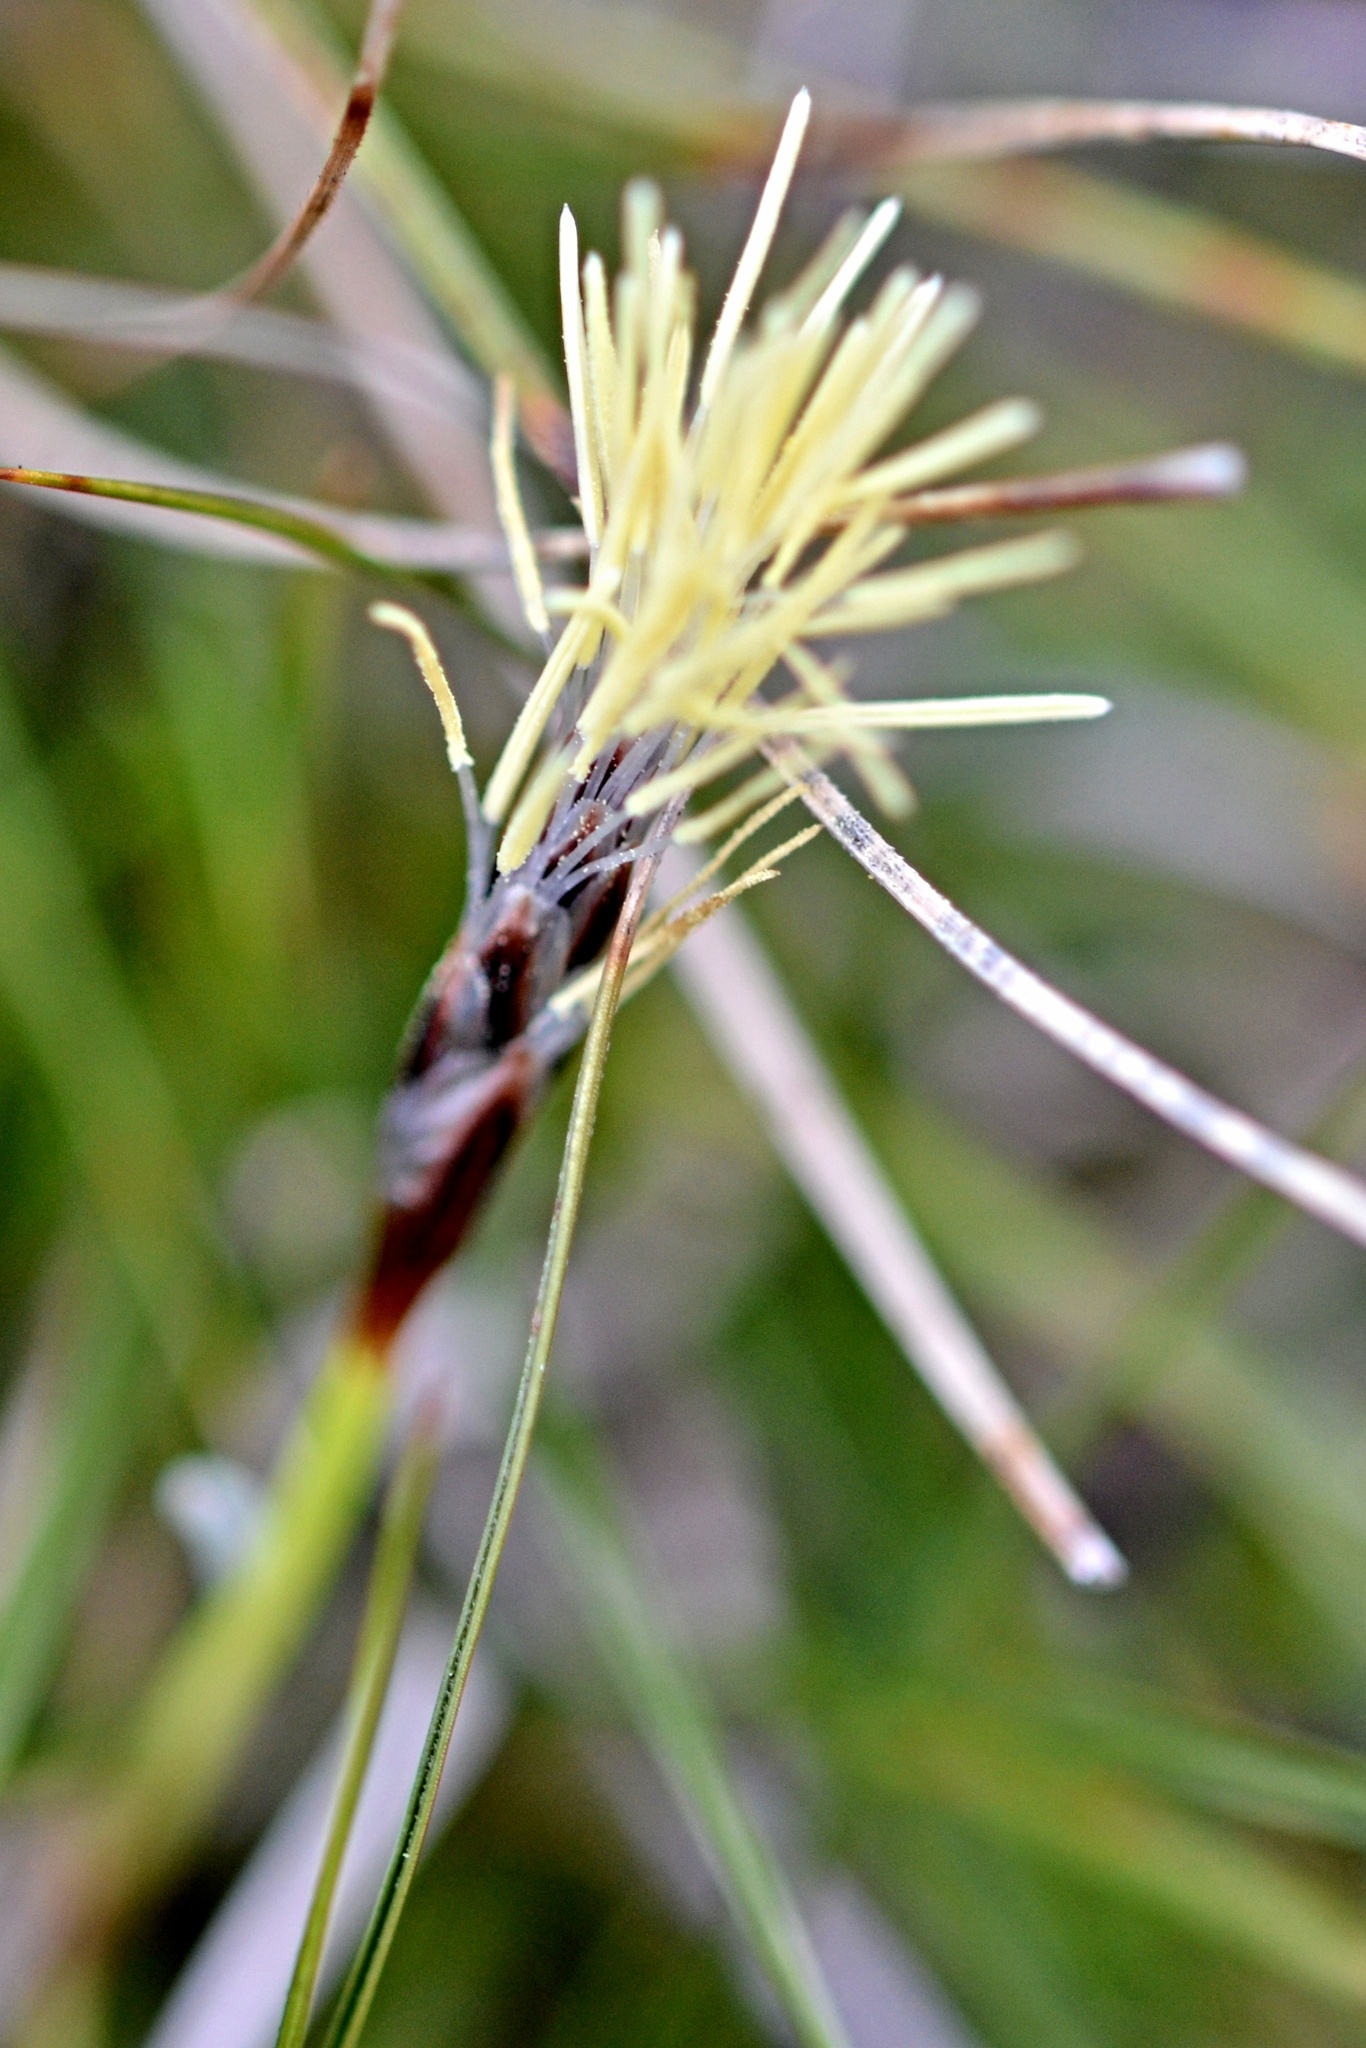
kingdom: Plantae
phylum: Tracheophyta
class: Liliopsida
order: Poales
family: Cyperaceae
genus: Carex
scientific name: Carex humilis
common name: Dwarf sedge
